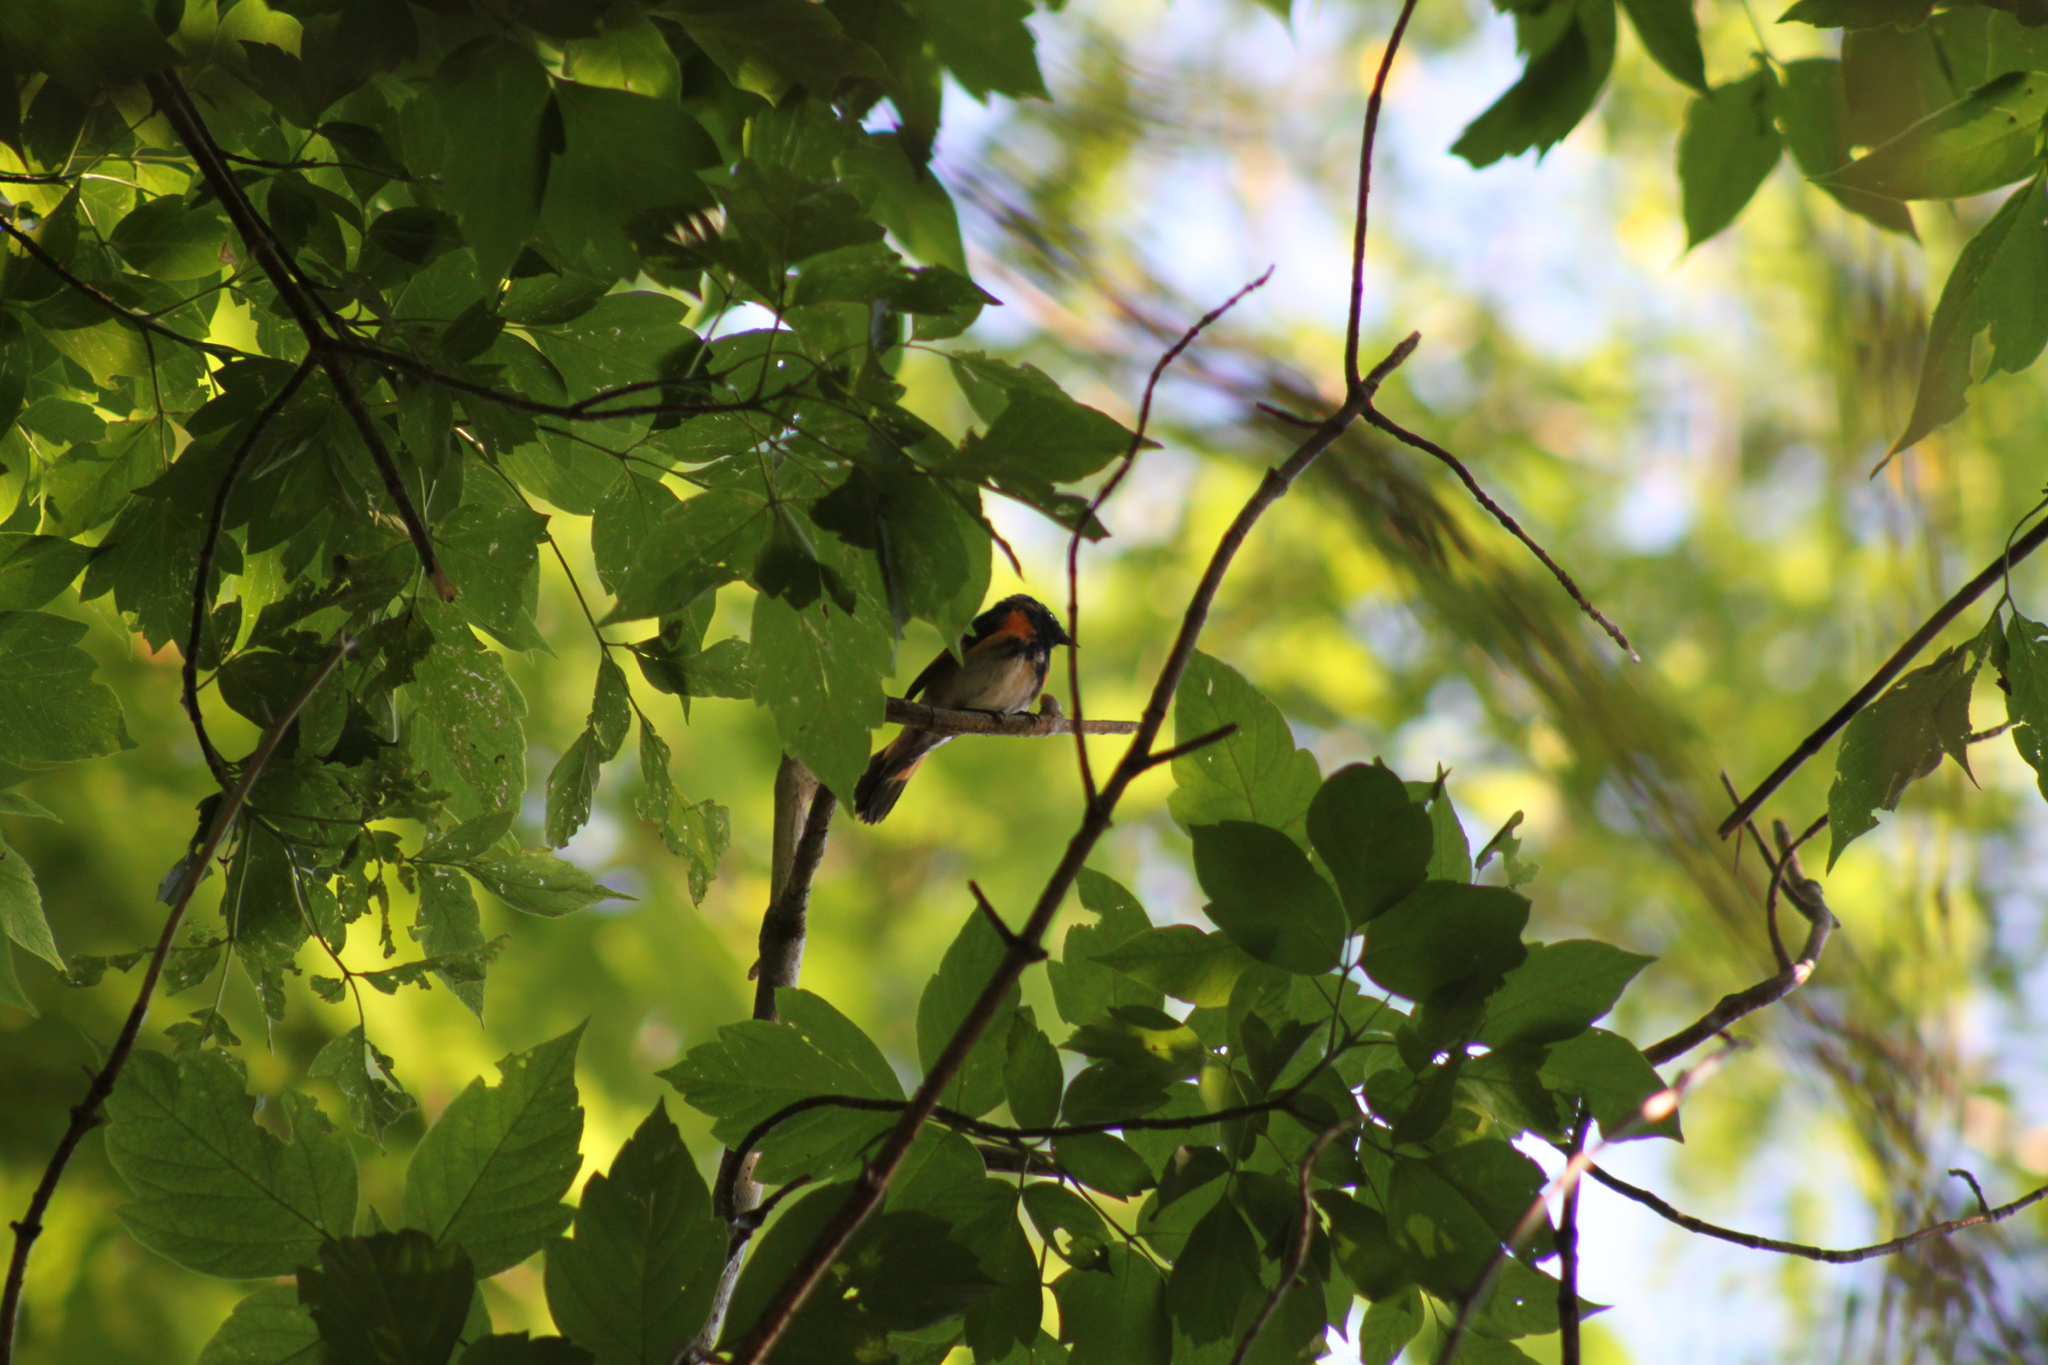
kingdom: Animalia
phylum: Chordata
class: Aves
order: Passeriformes
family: Parulidae
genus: Setophaga
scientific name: Setophaga ruticilla
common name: American redstart
